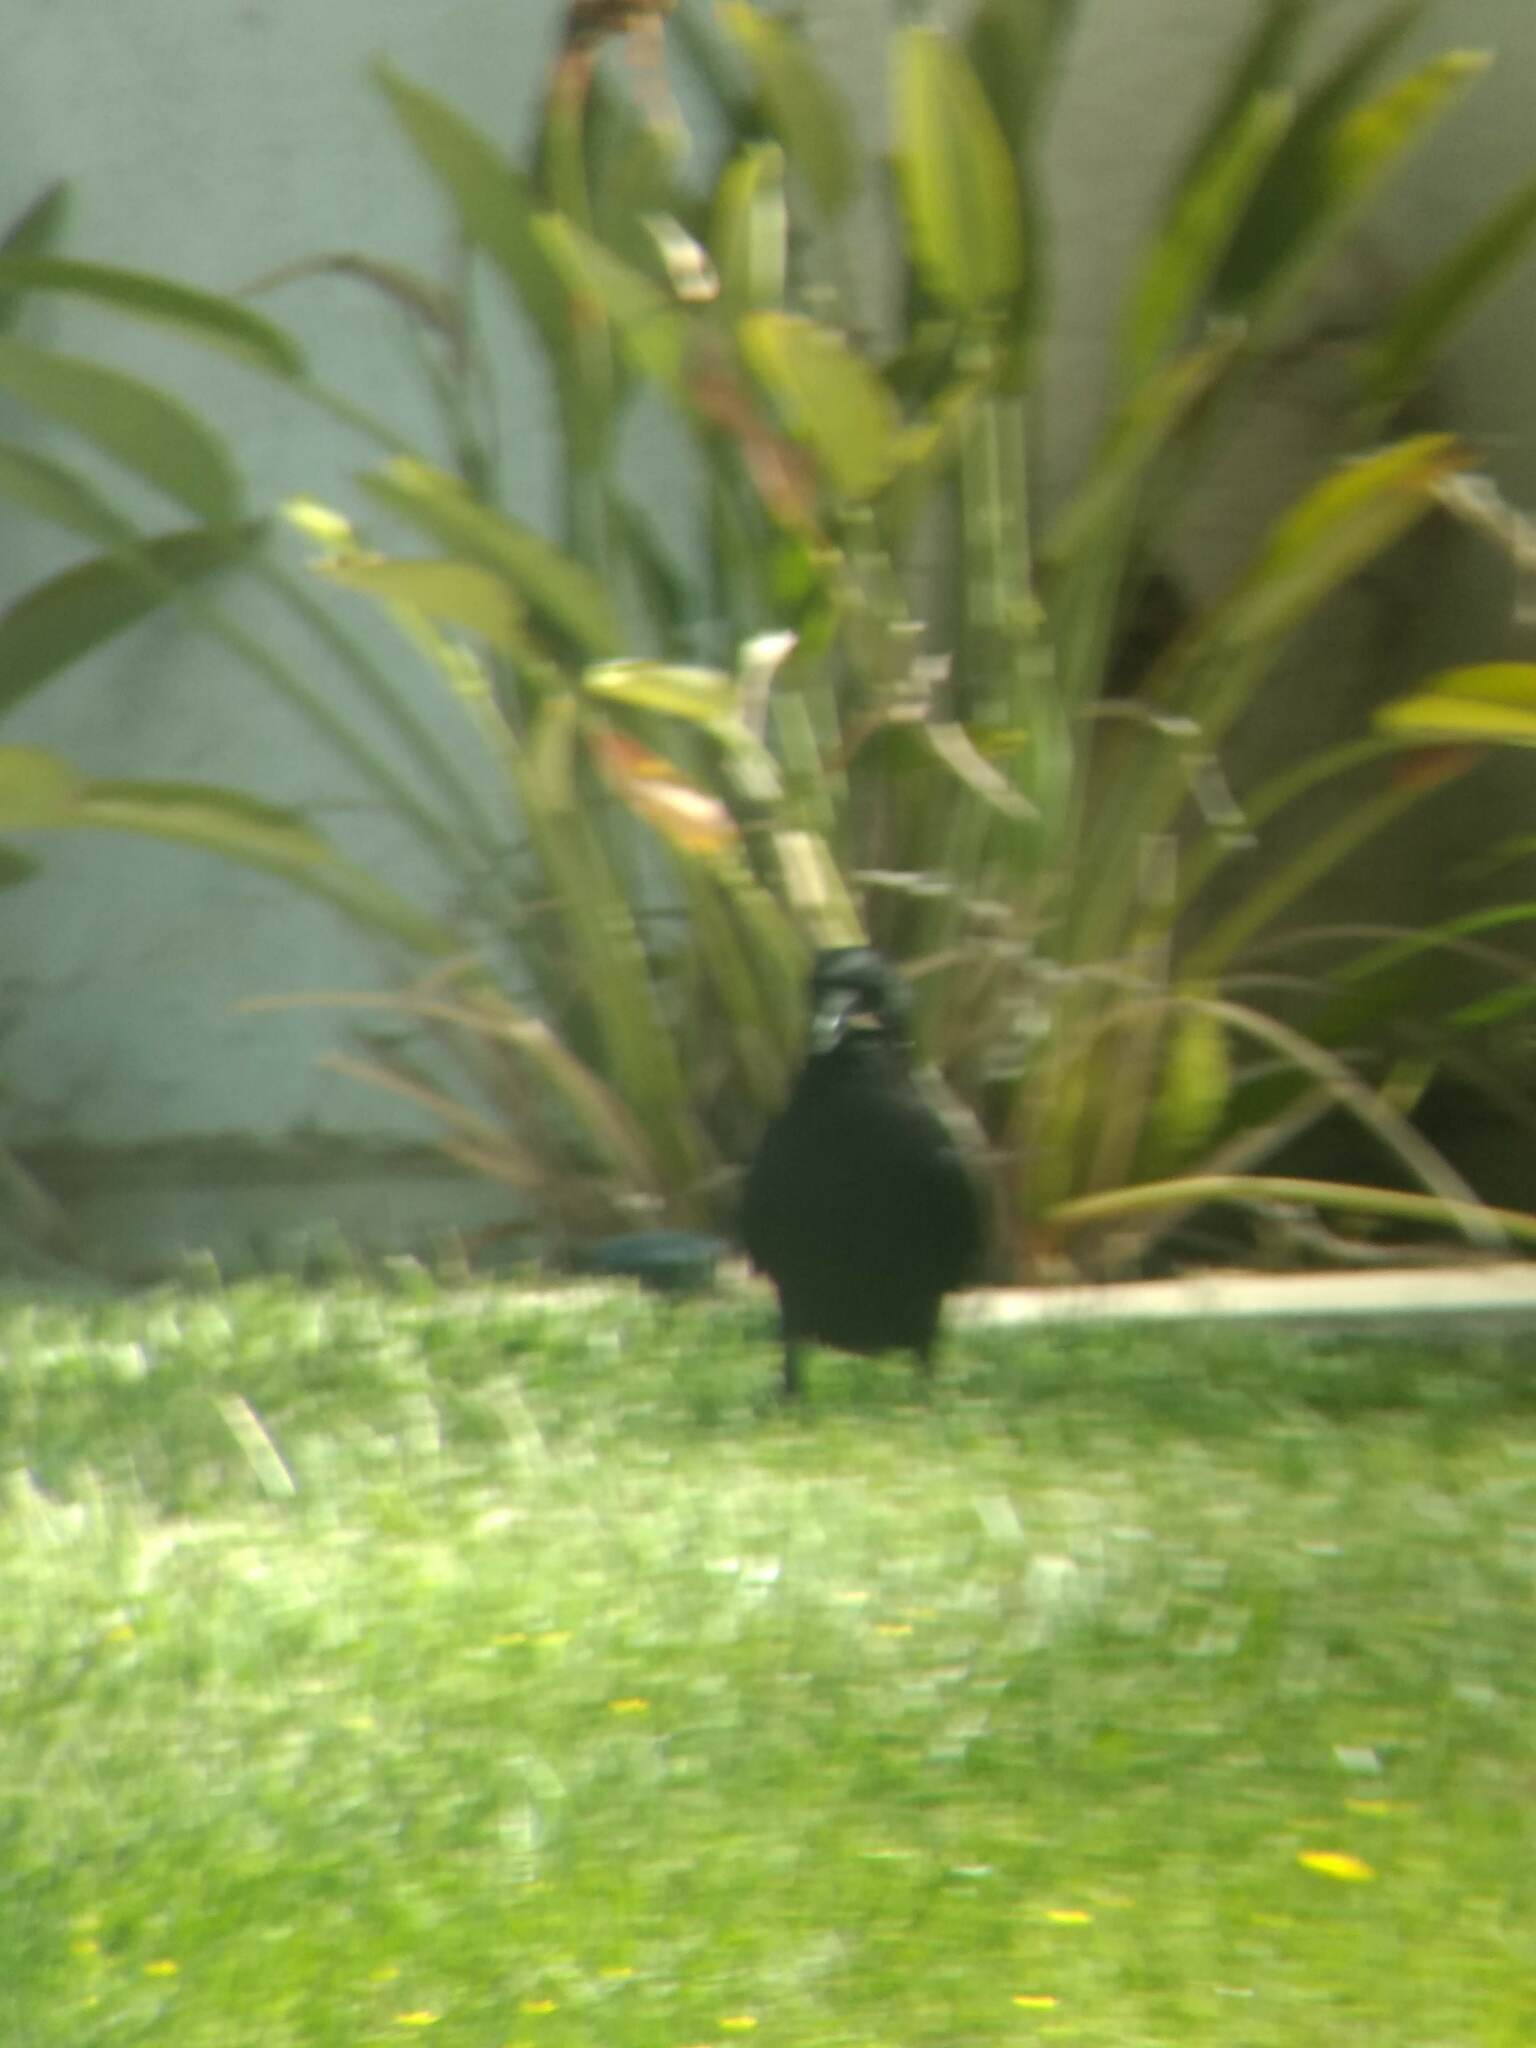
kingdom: Animalia
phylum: Chordata
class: Aves
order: Passeriformes
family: Corvidae
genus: Corvus
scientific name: Corvus brachyrhynchos
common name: American crow
